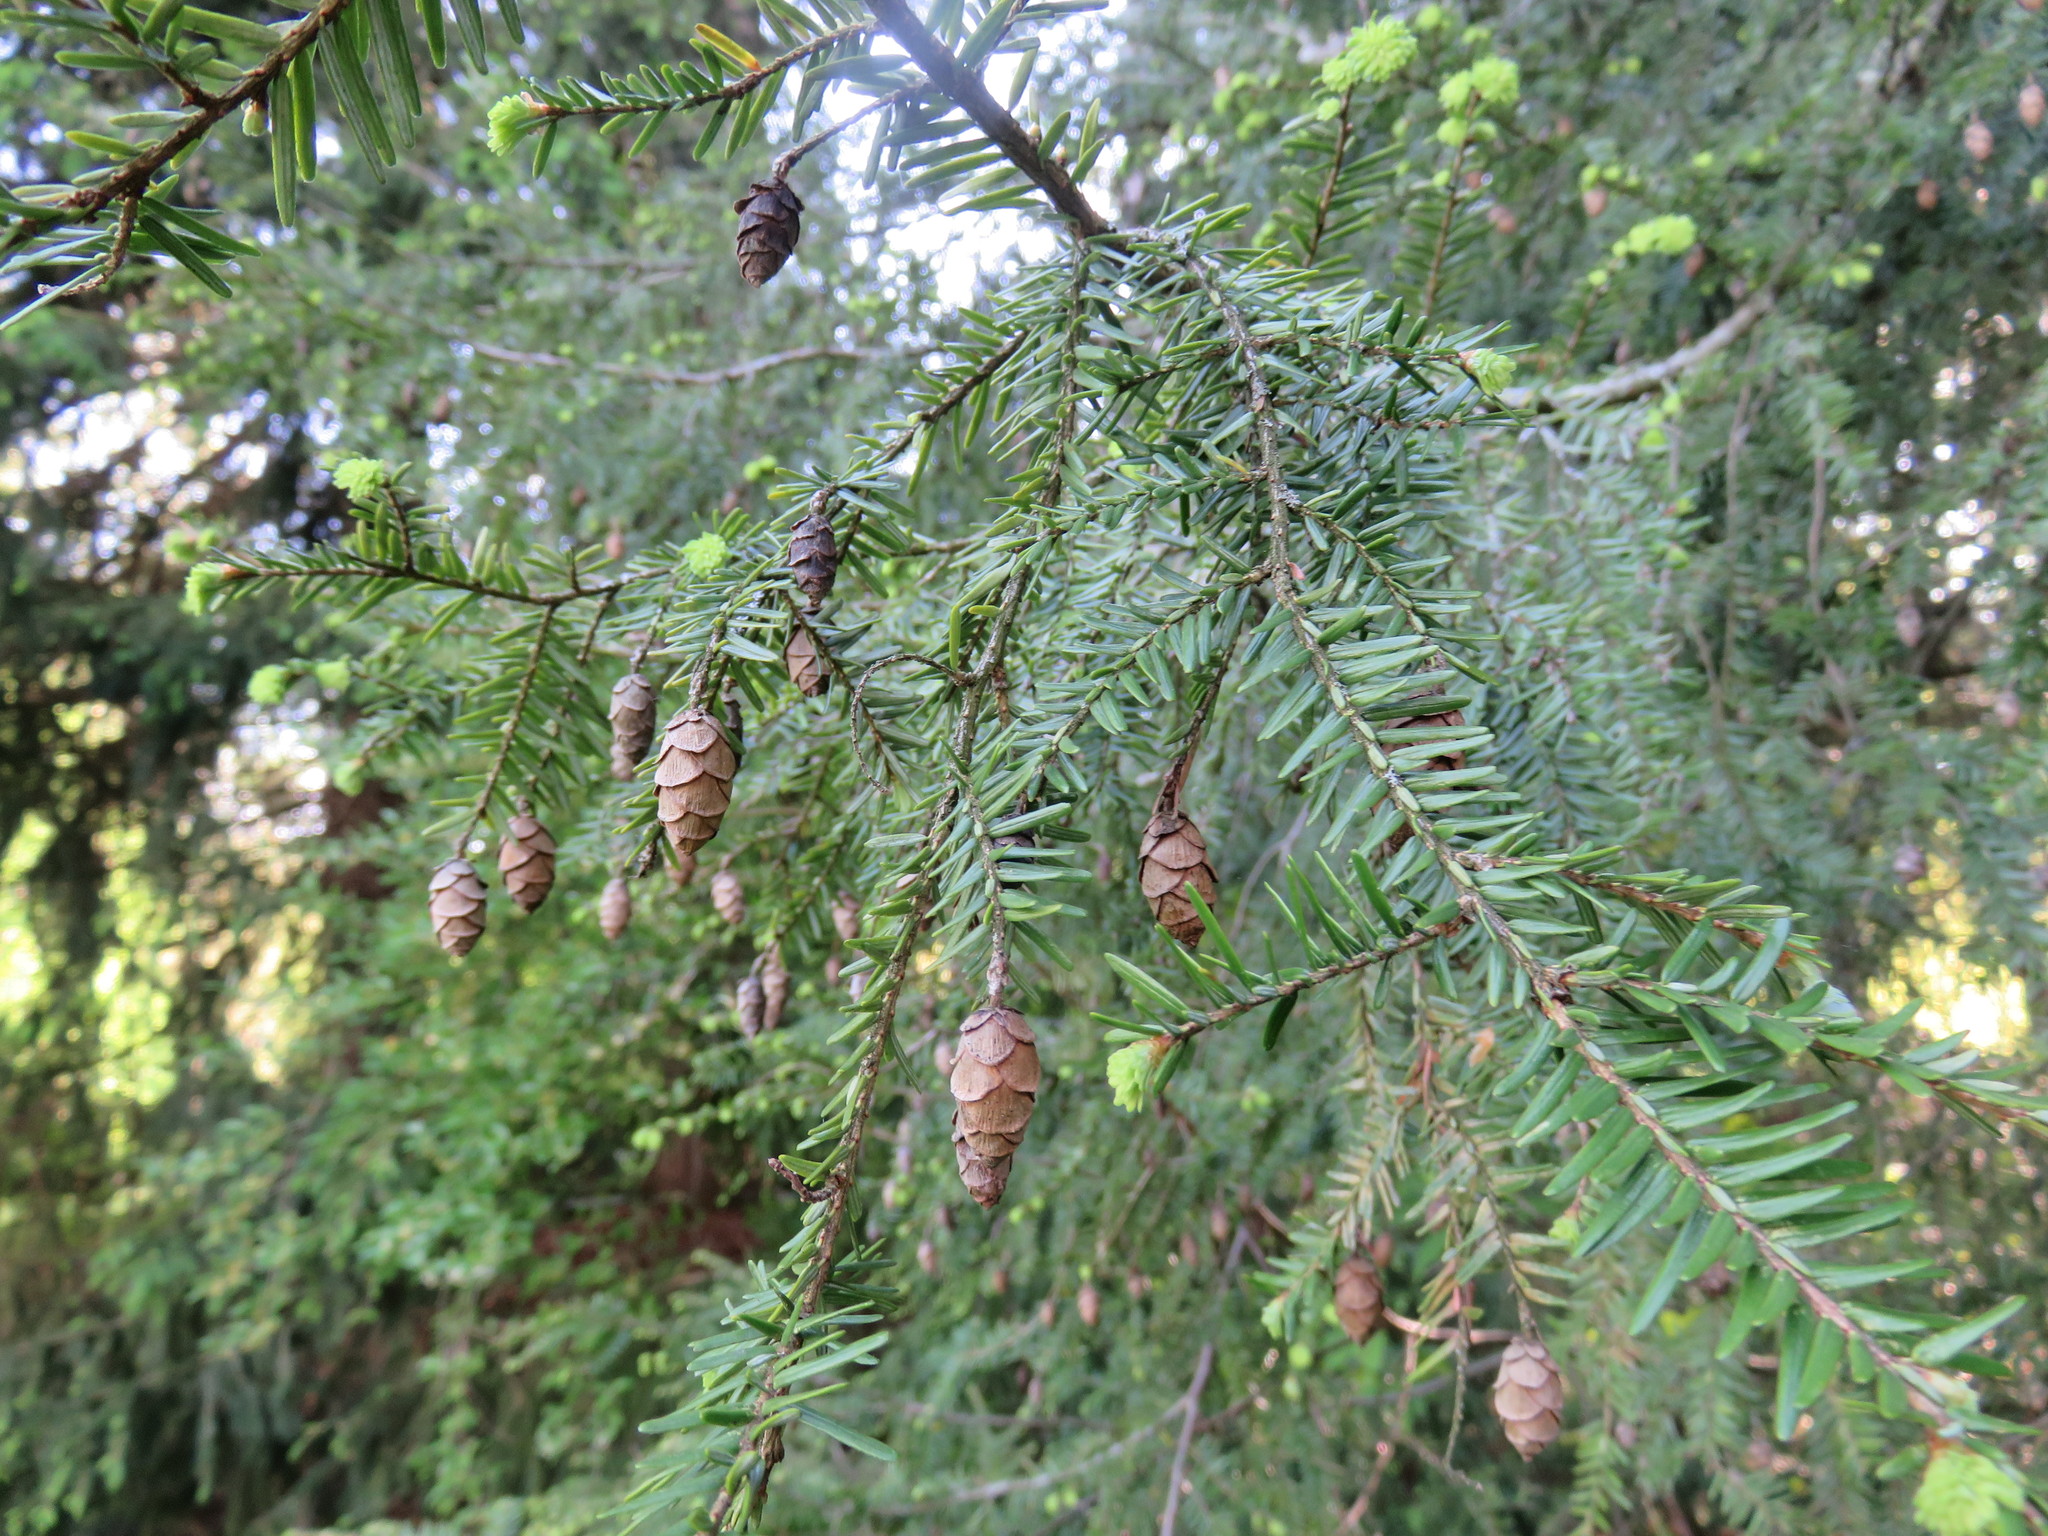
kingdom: Plantae
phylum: Tracheophyta
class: Pinopsida
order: Pinales
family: Pinaceae
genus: Tsuga
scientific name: Tsuga canadensis
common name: Eastern hemlock
